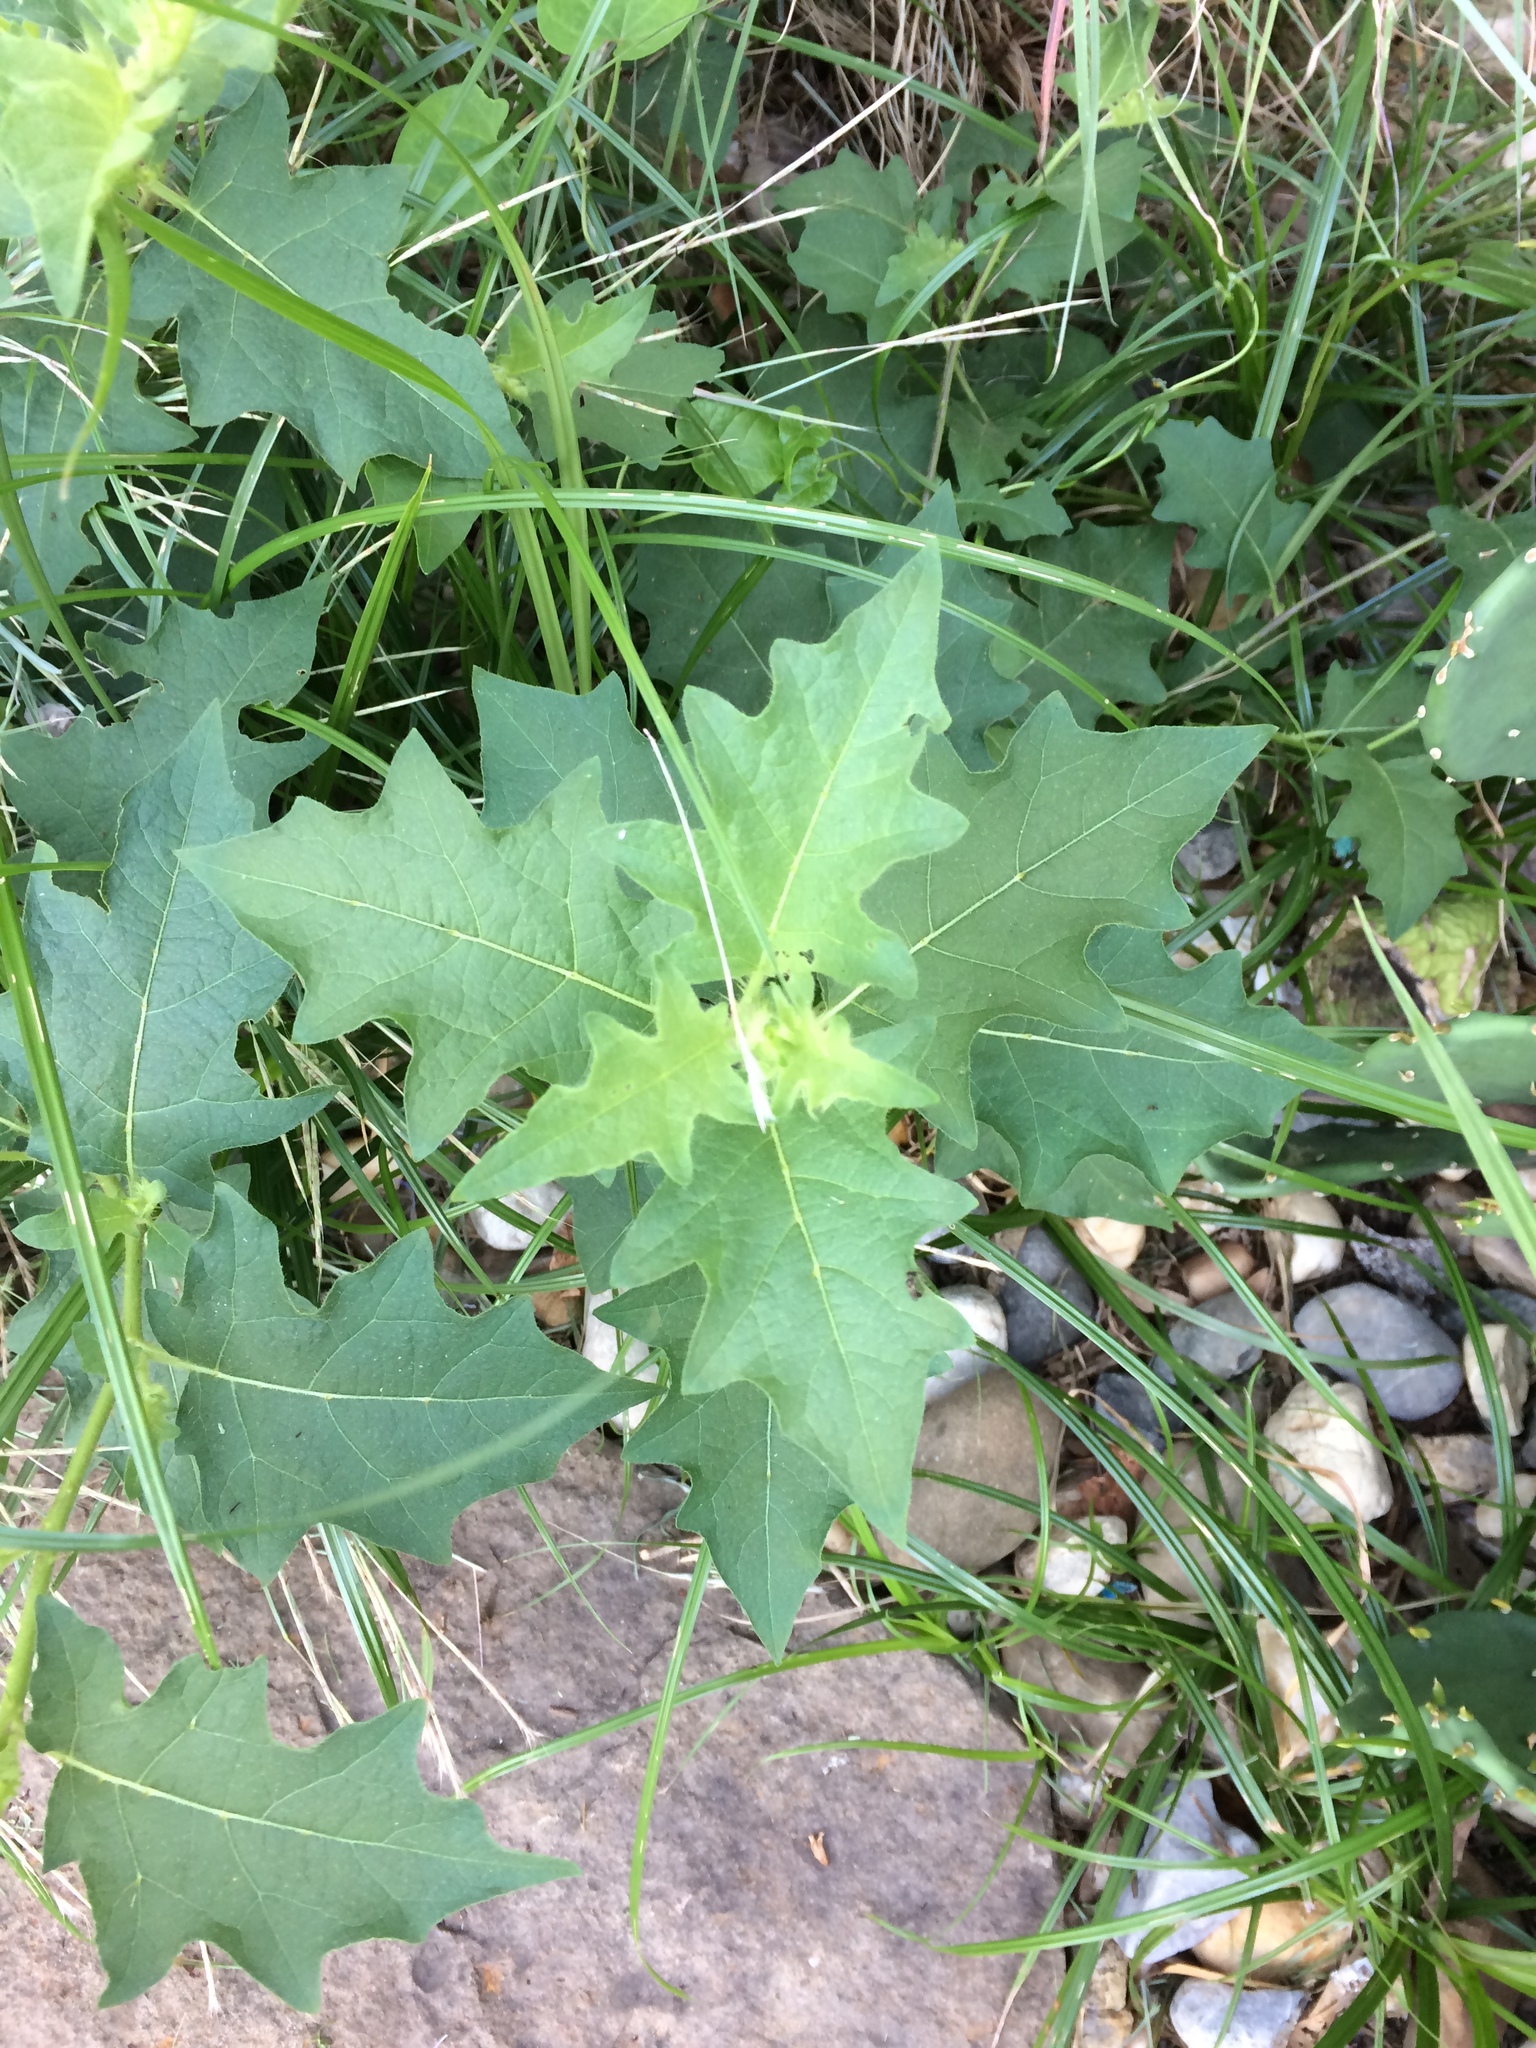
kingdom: Plantae
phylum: Tracheophyta
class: Magnoliopsida
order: Solanales
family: Solanaceae
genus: Solanum
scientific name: Solanum carolinense
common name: Horse-nettle
